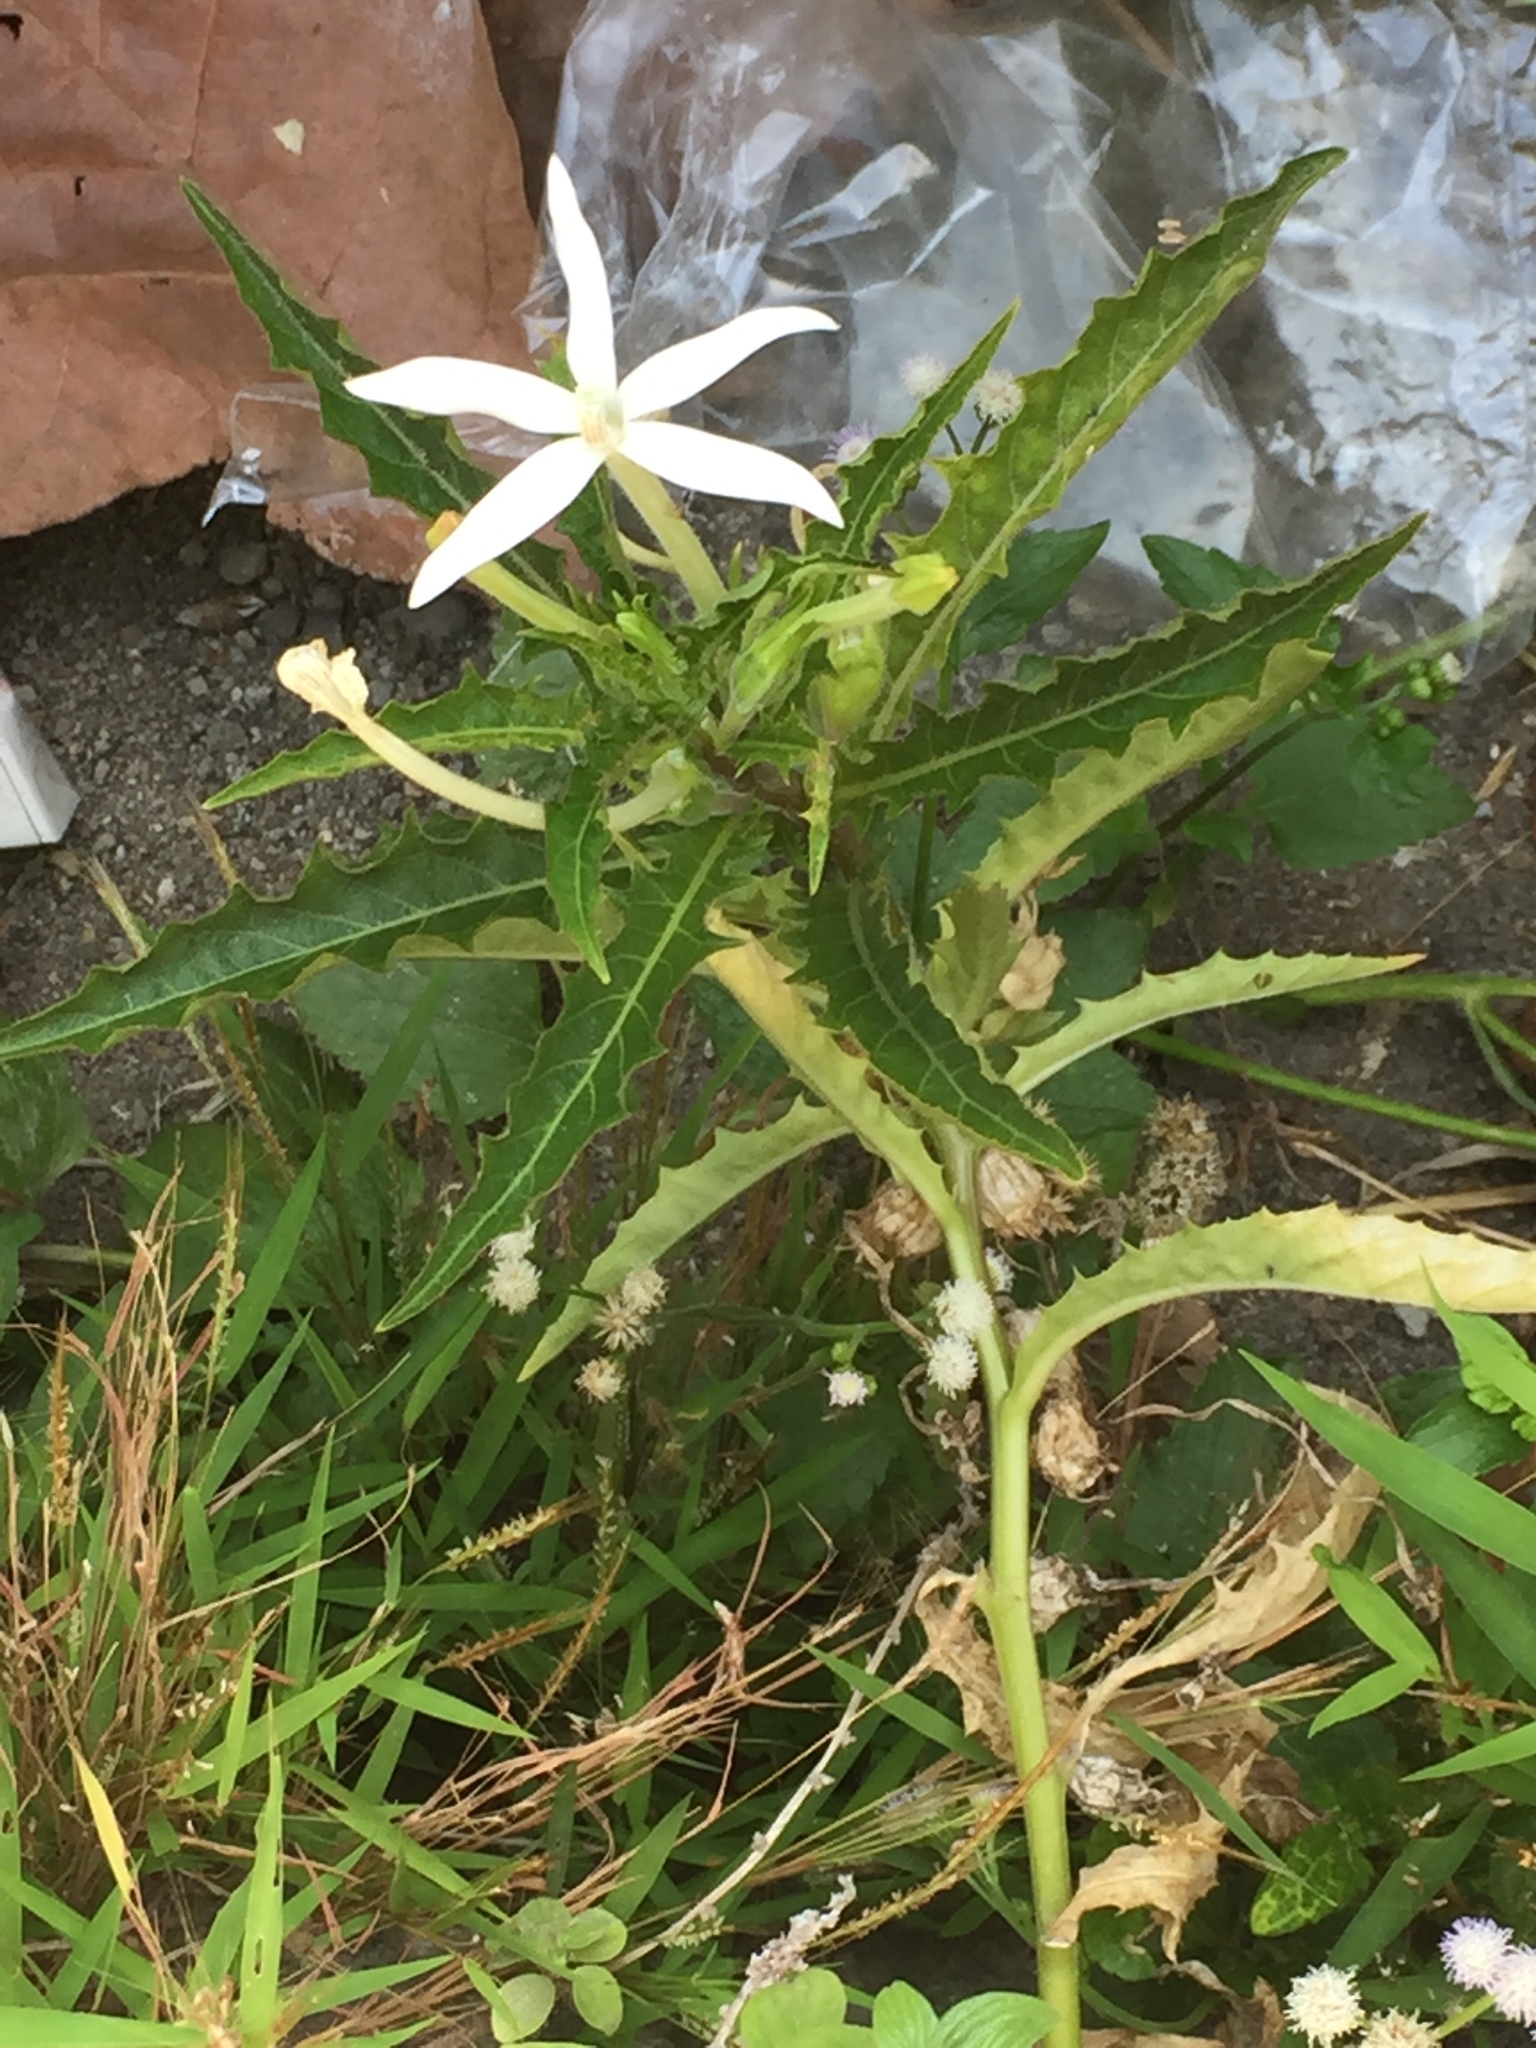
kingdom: Plantae
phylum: Tracheophyta
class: Magnoliopsida
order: Asterales
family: Campanulaceae
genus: Hippobroma
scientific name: Hippobroma longiflora
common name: Madamfate
